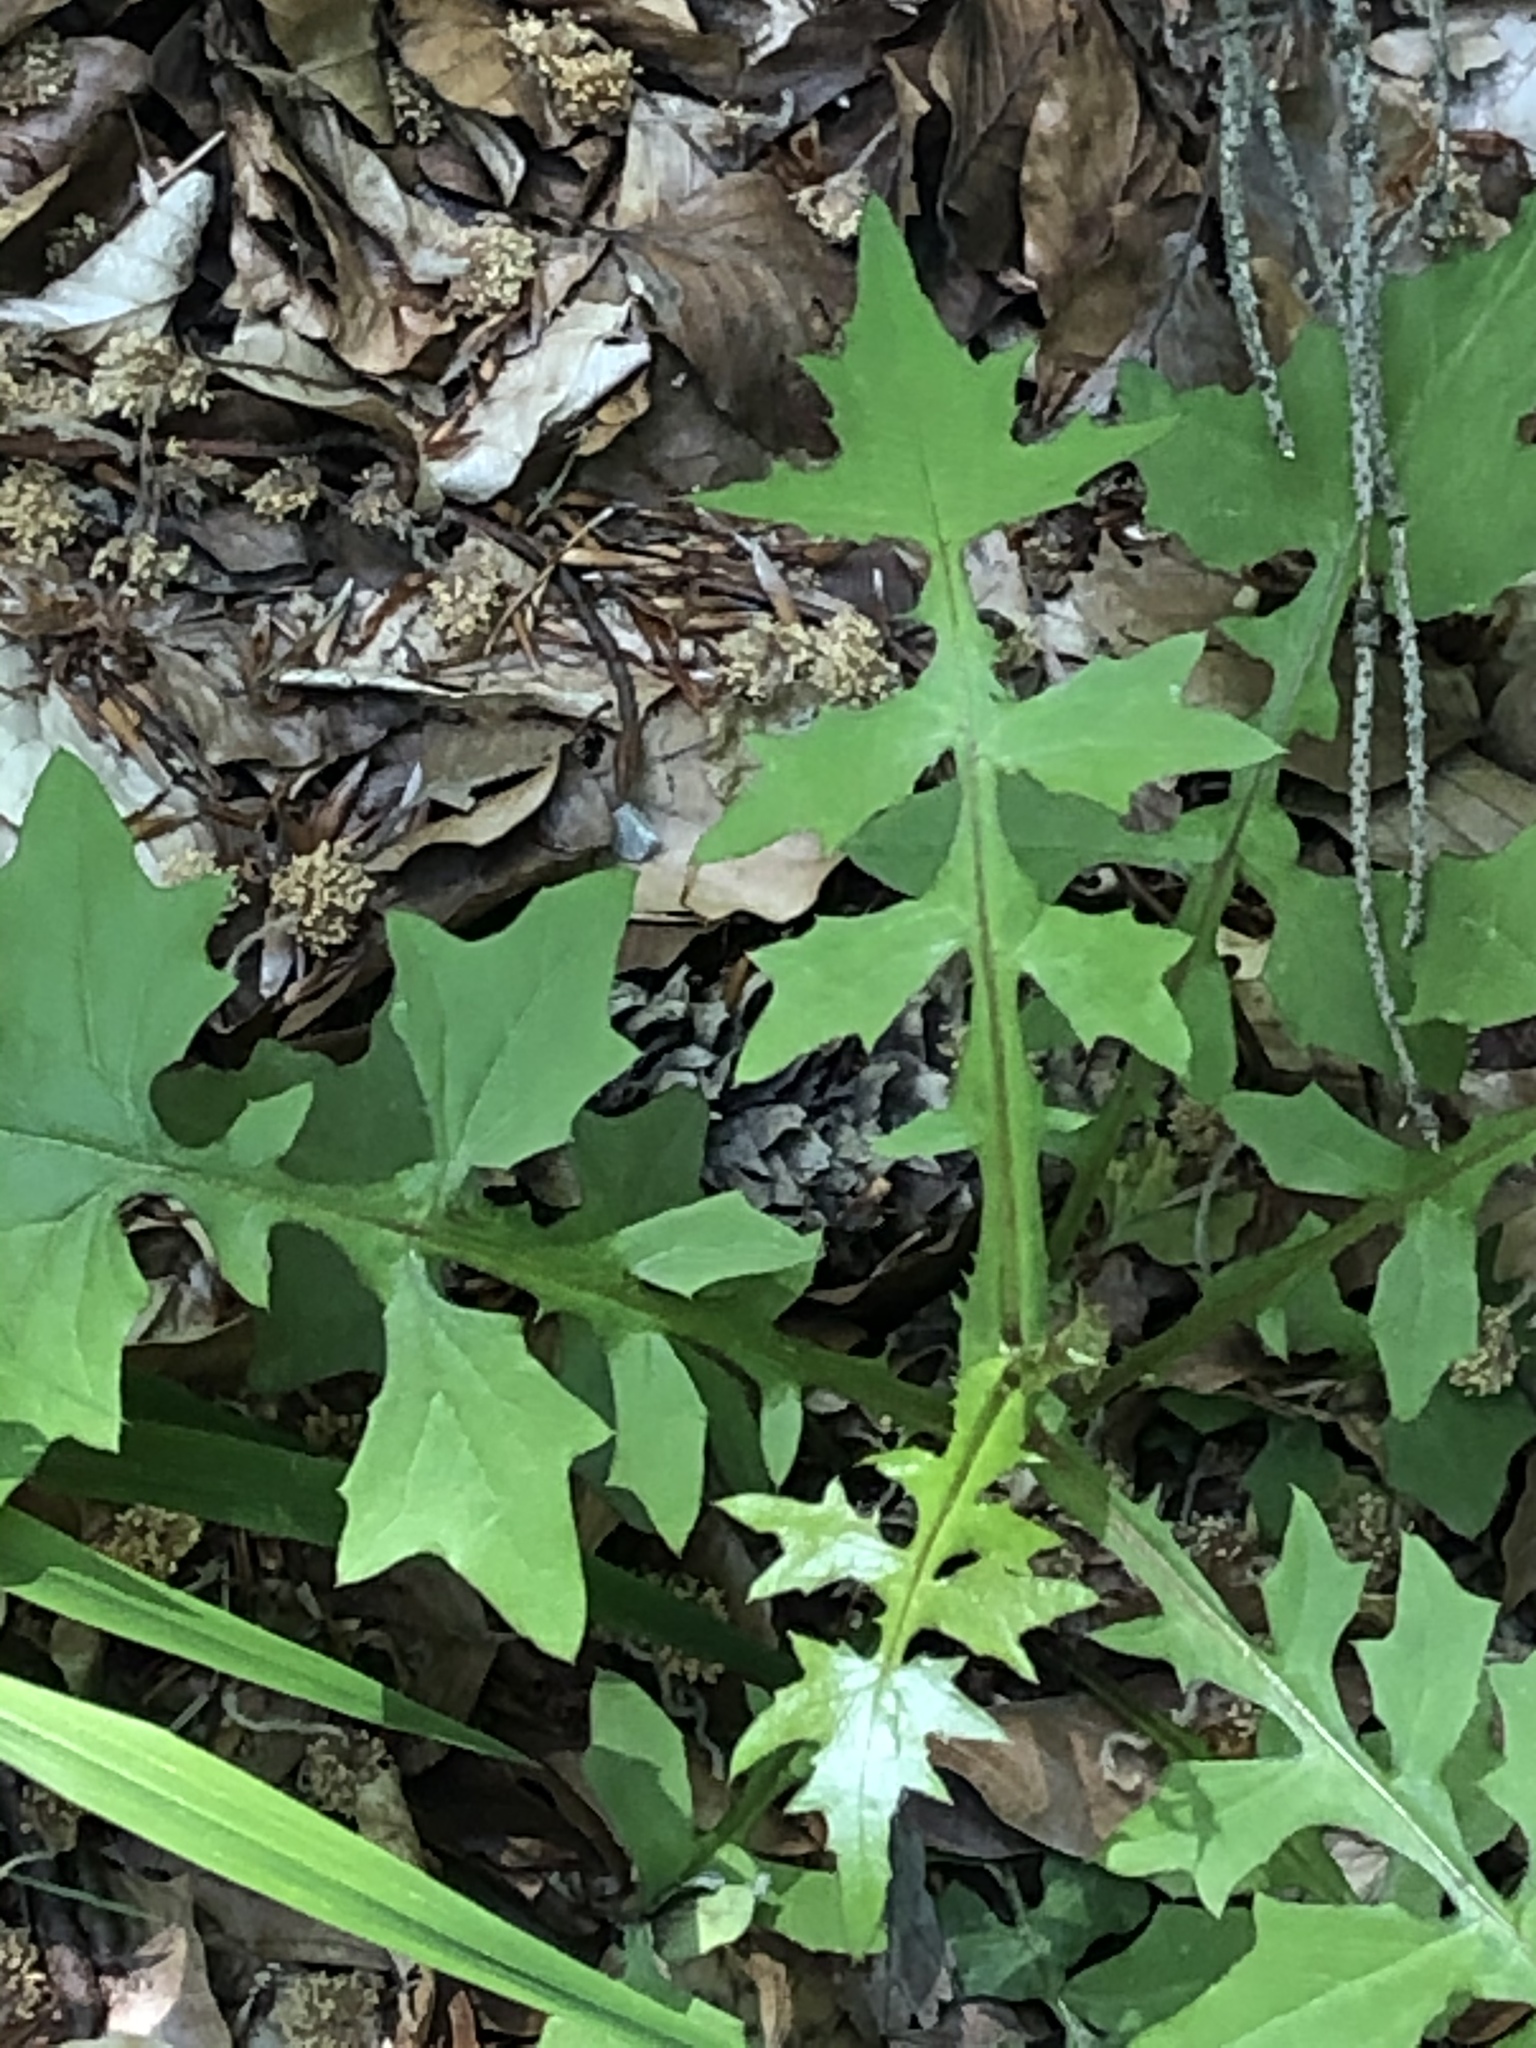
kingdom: Plantae
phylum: Tracheophyta
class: Magnoliopsida
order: Asterales
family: Asteraceae
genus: Mycelis
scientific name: Mycelis muralis
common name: Wall lettuce
